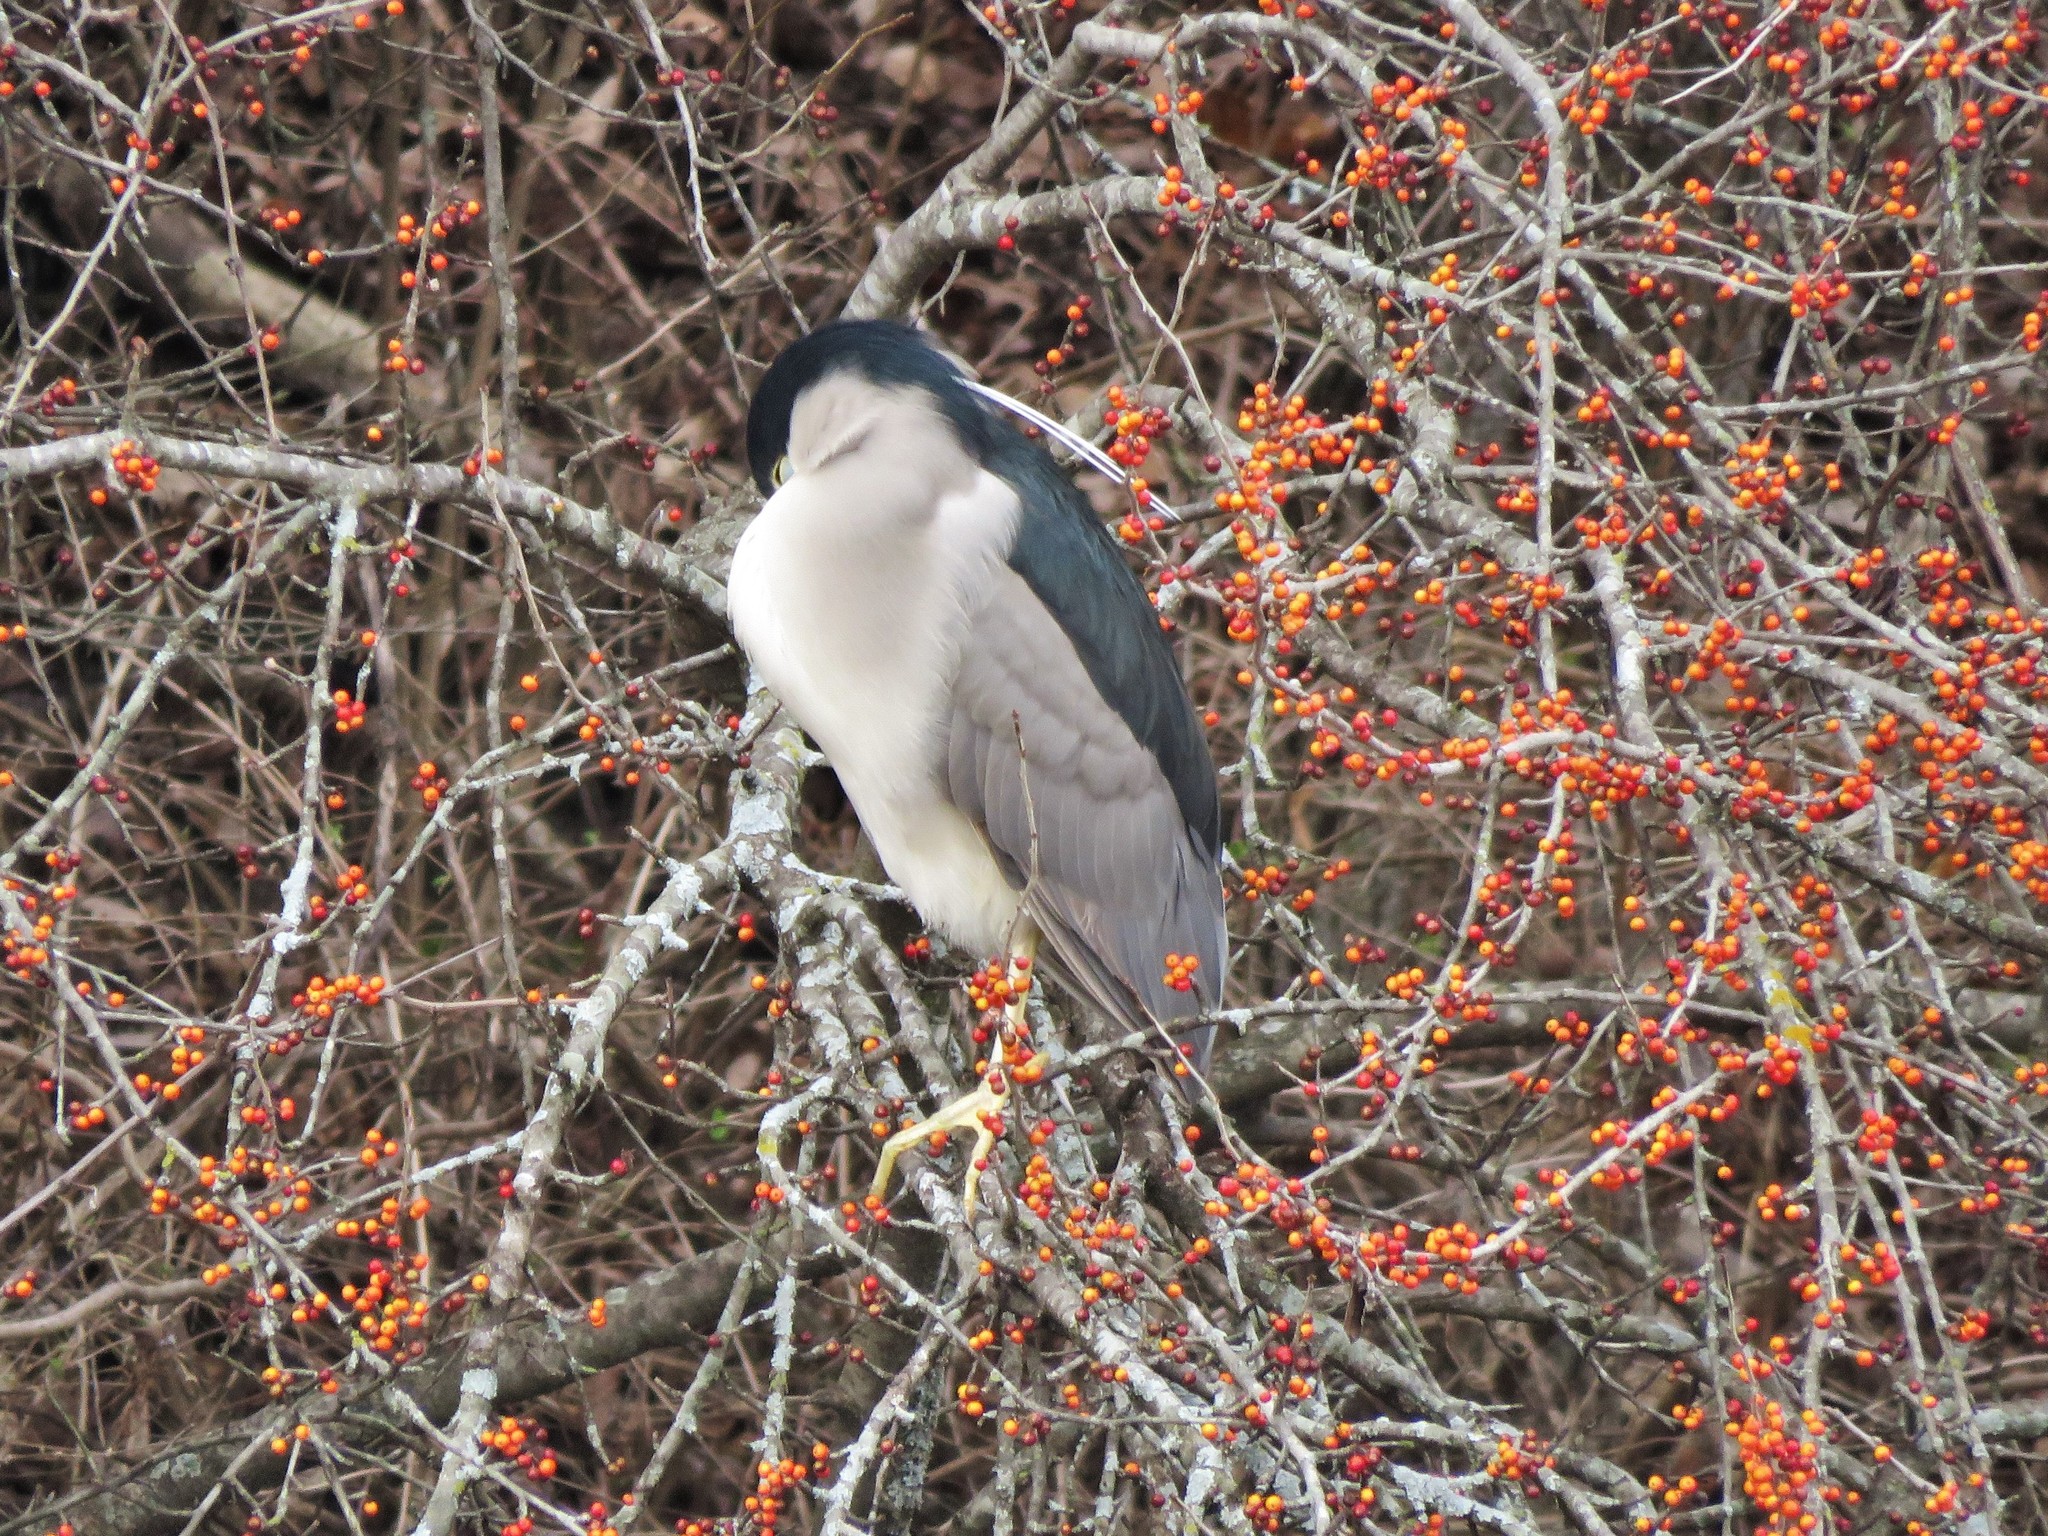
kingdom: Animalia
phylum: Chordata
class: Aves
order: Pelecaniformes
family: Ardeidae
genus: Nycticorax
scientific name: Nycticorax nycticorax
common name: Black-crowned night heron
